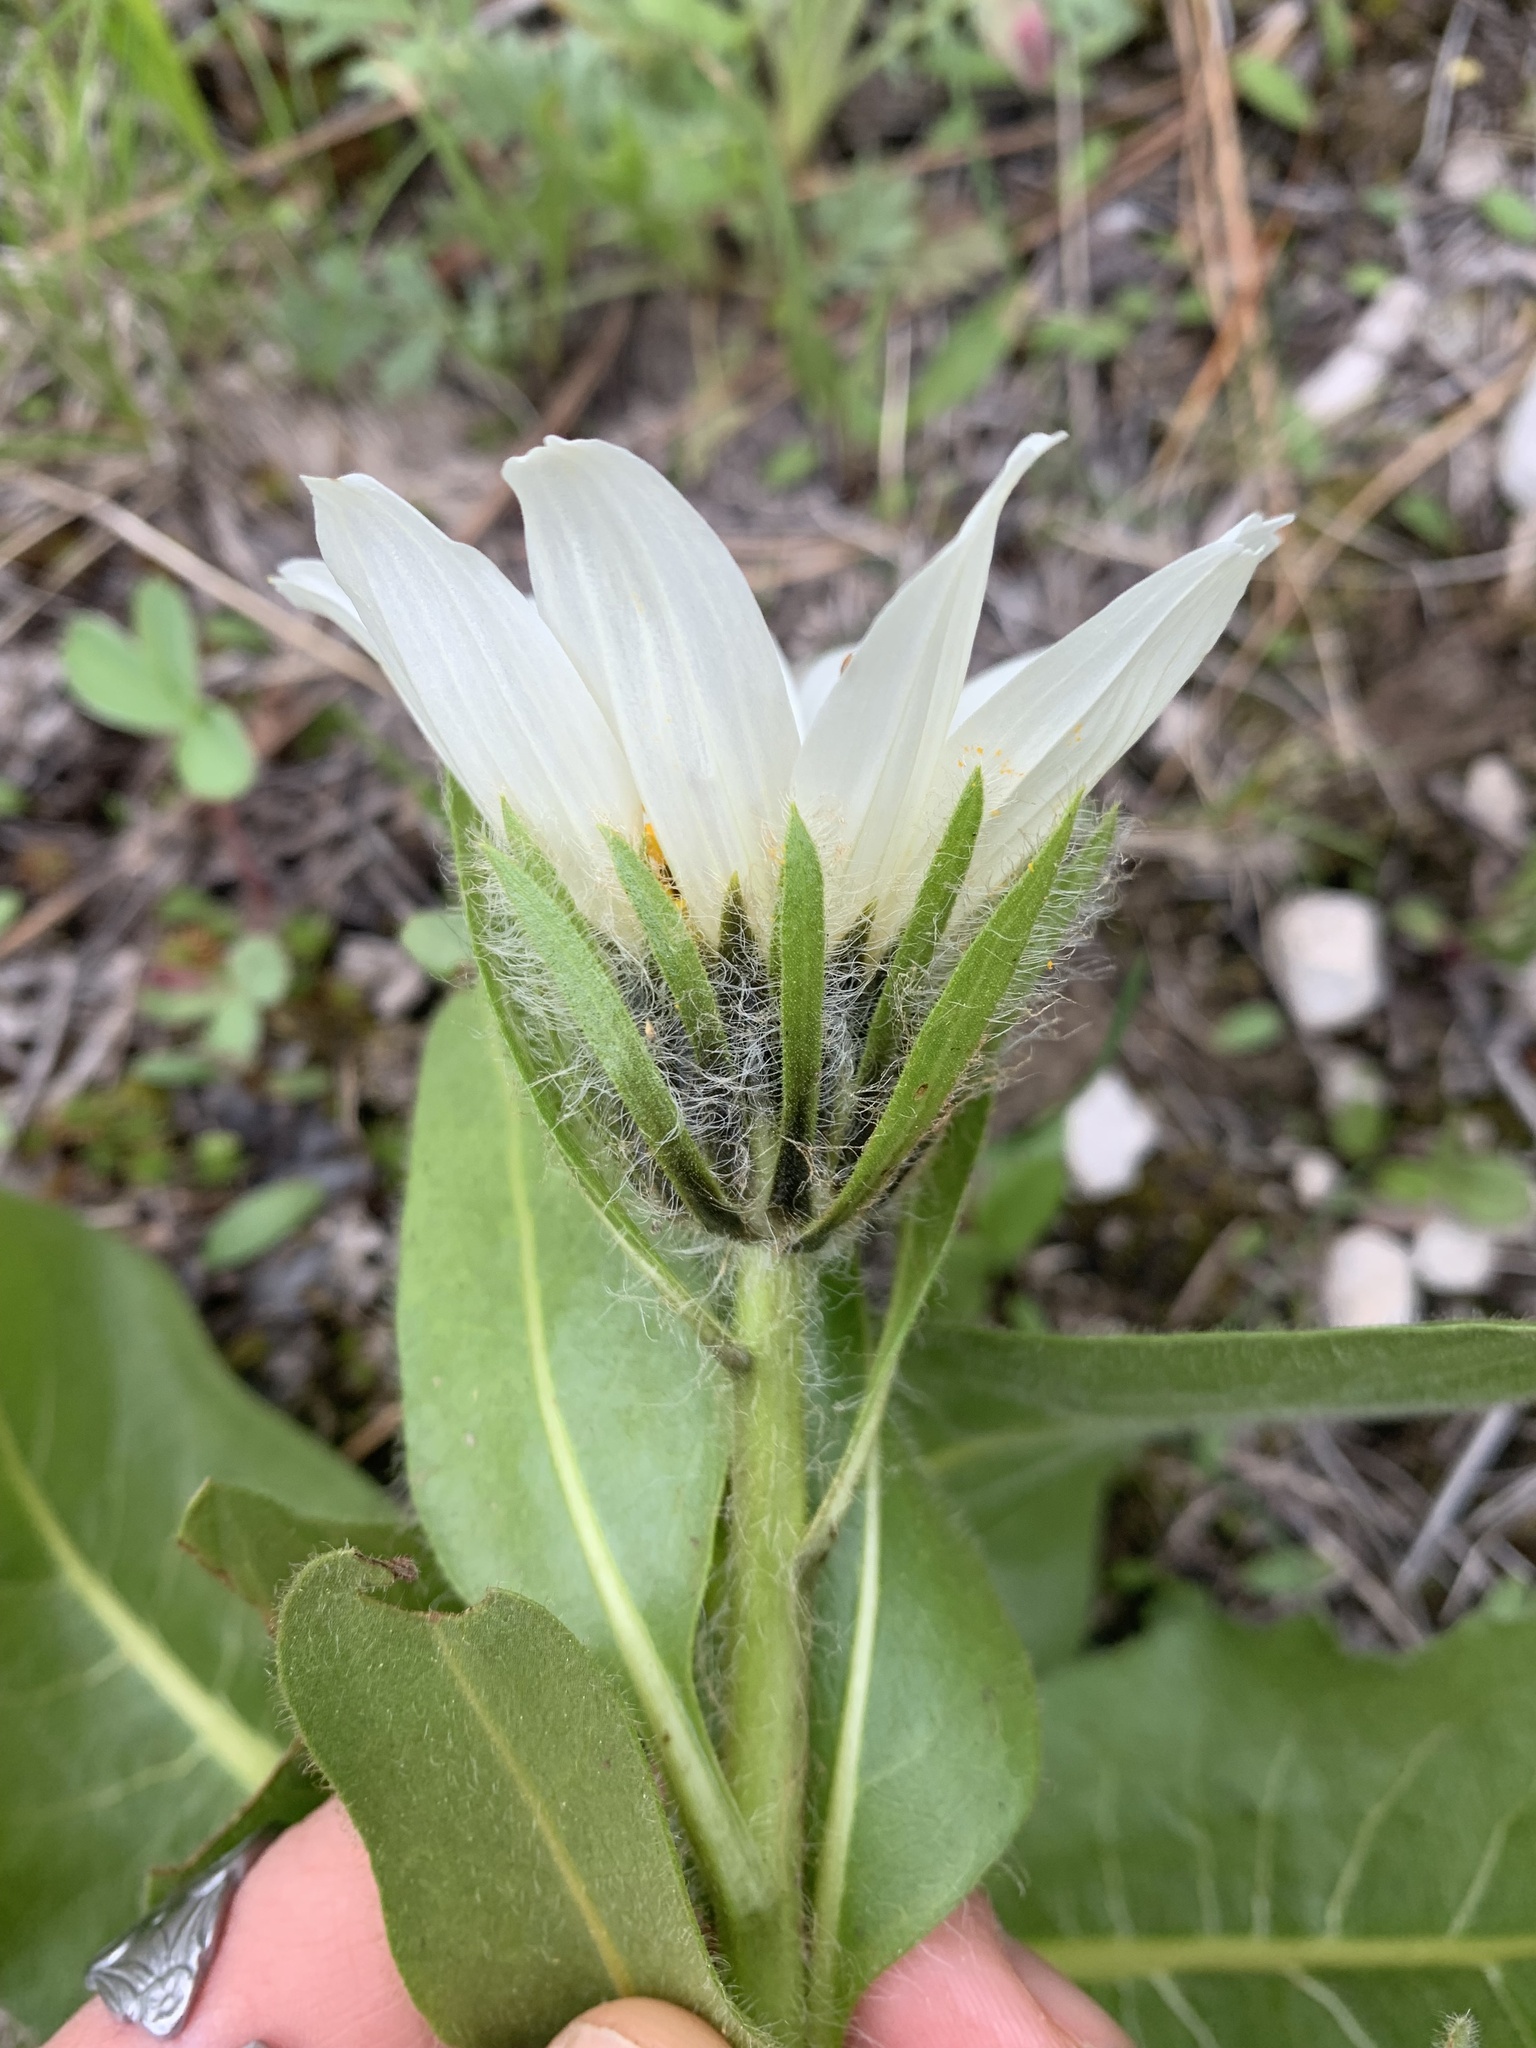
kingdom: Plantae
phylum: Tracheophyta
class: Magnoliopsida
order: Asterales
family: Asteraceae
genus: Wyethia
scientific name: Wyethia helianthoides
